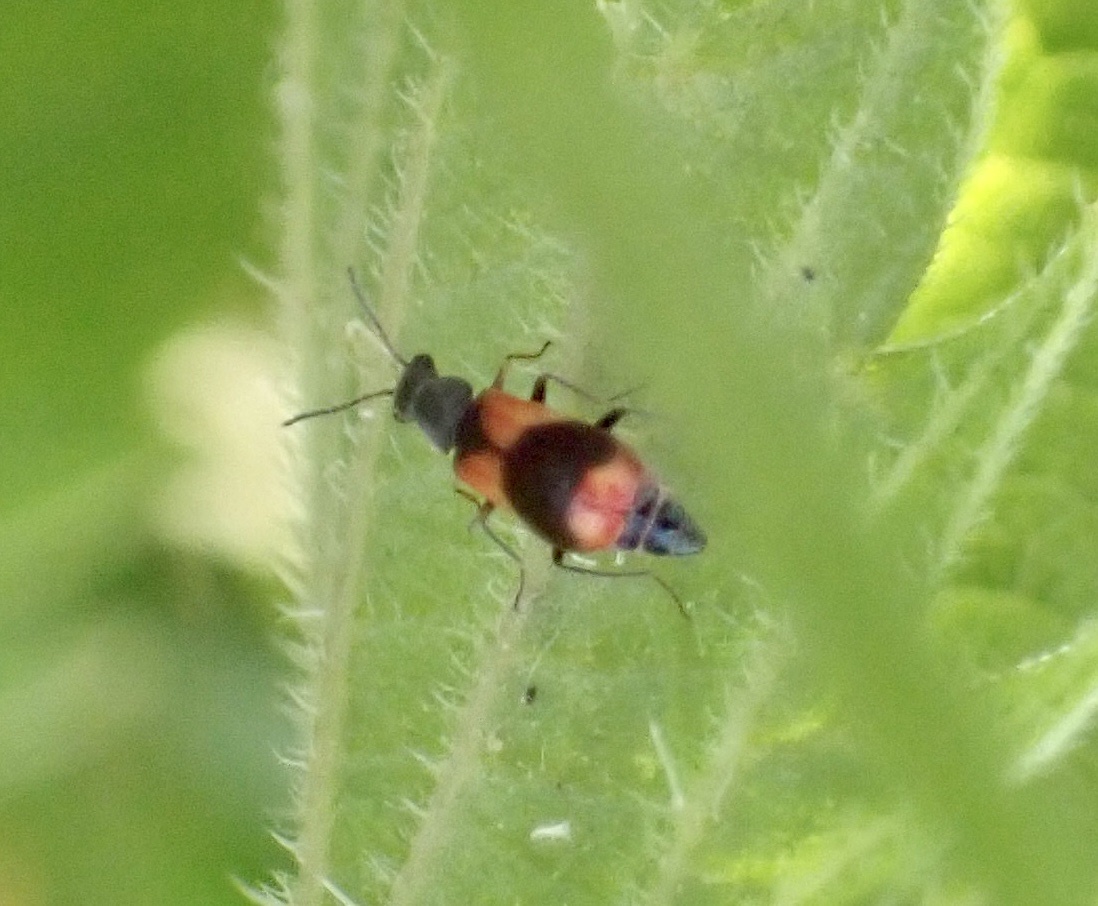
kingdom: Animalia
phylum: Arthropoda
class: Insecta
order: Coleoptera
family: Melyridae
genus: Anthocomus
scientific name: Anthocomus equestris
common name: Black-banded soft-winged flower beetle
